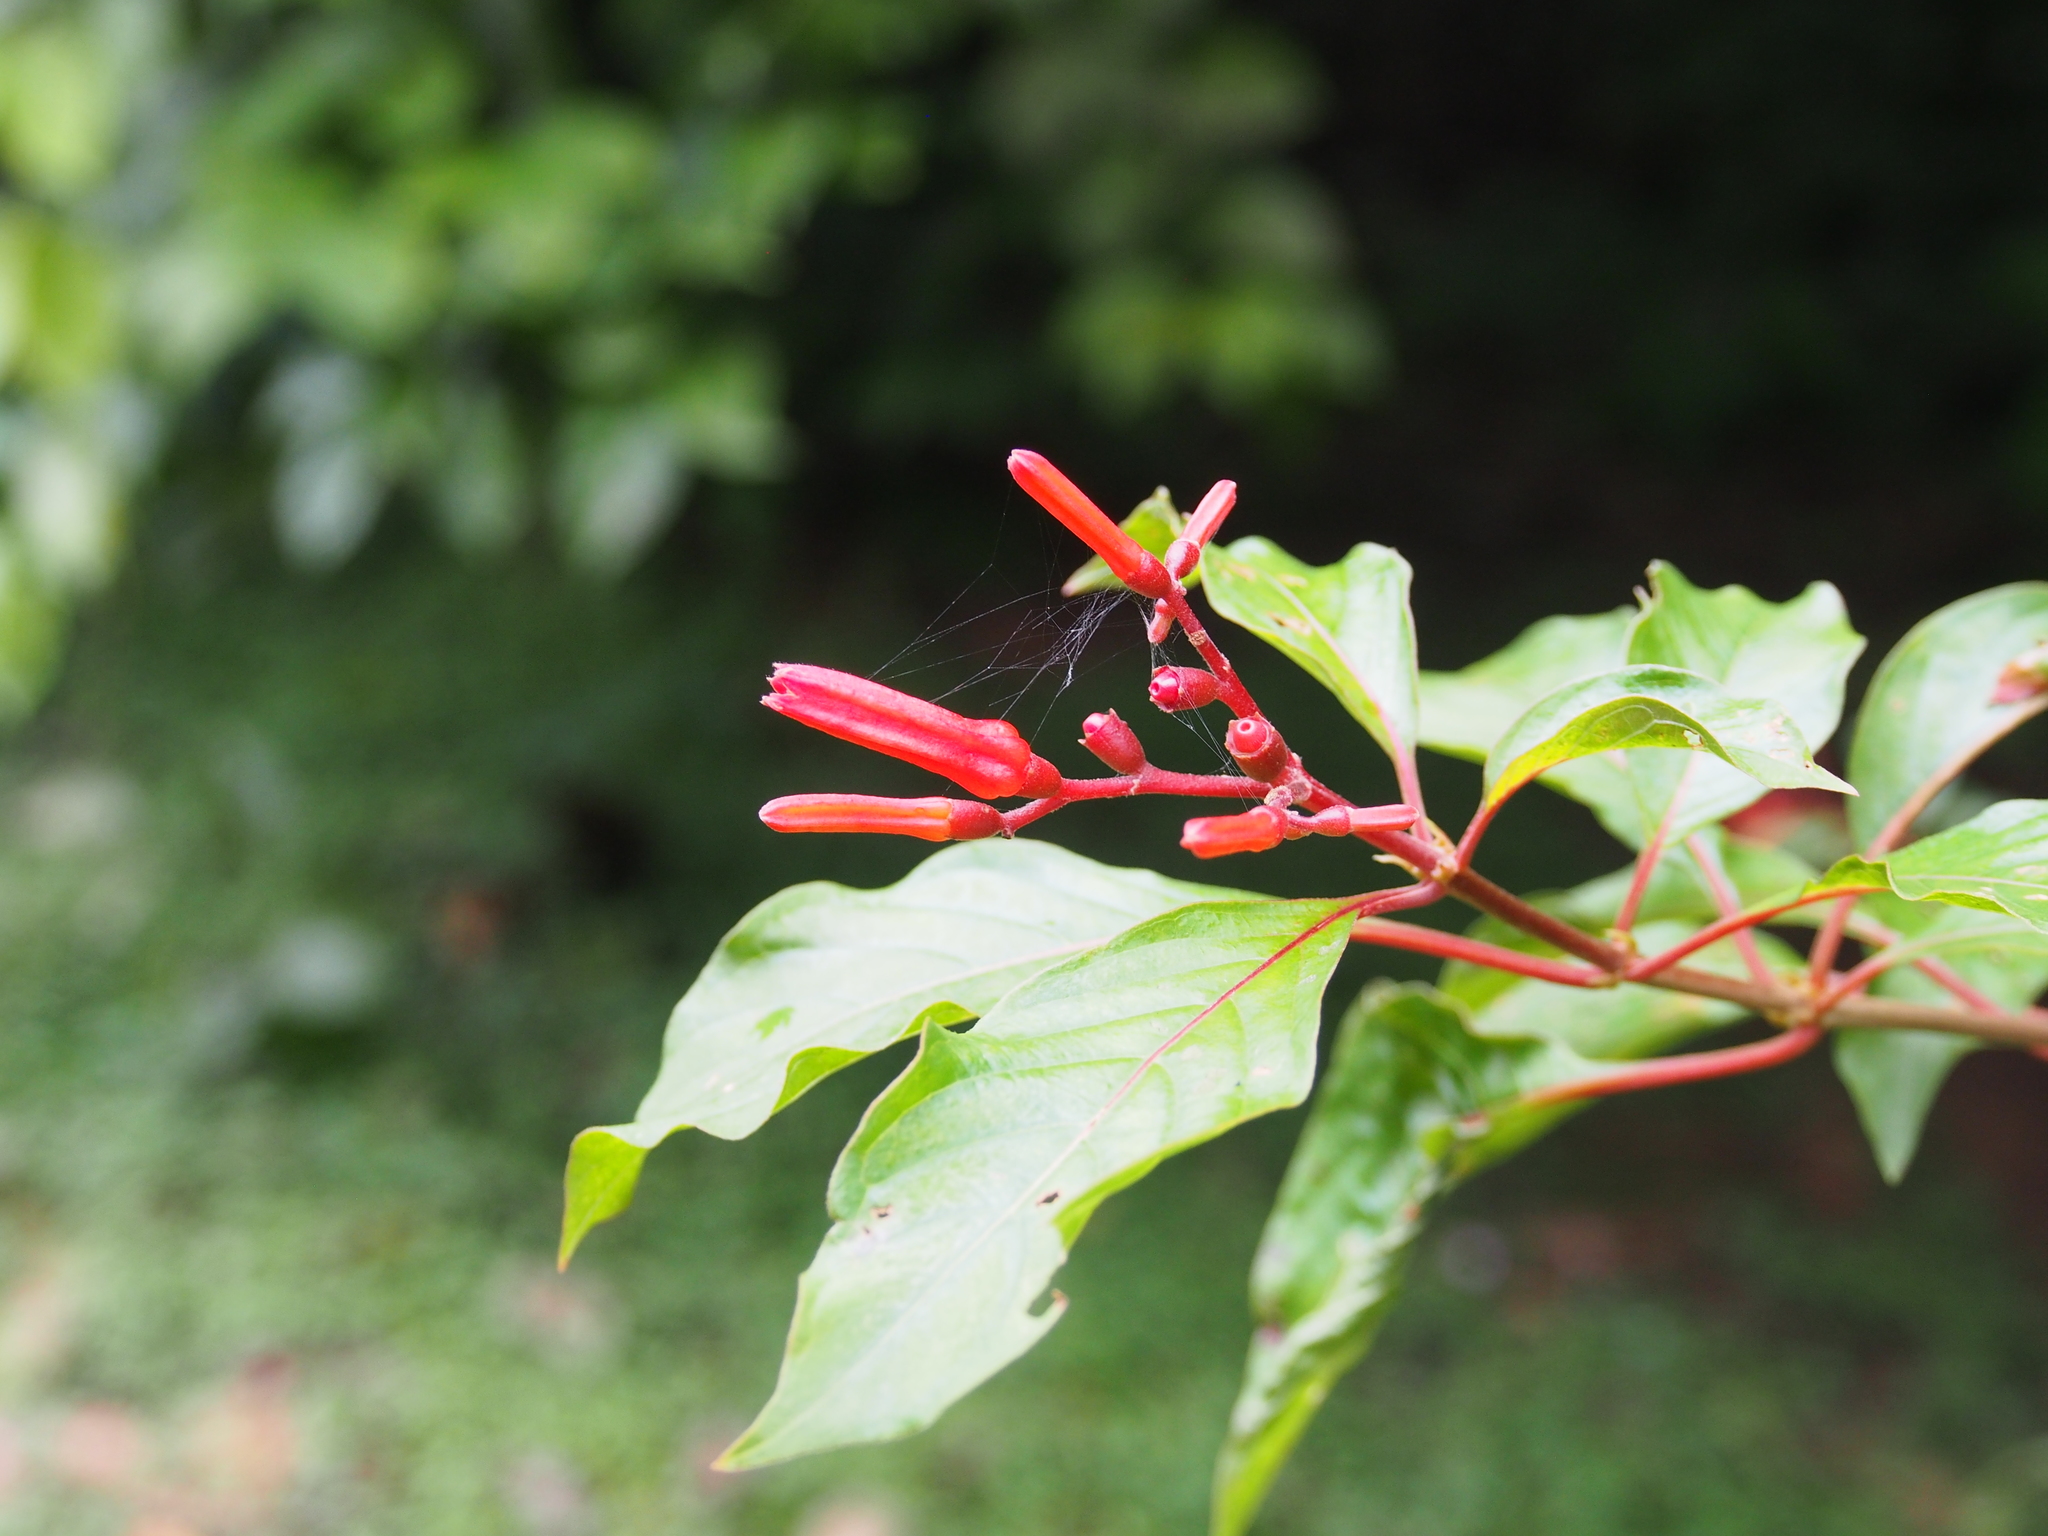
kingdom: Plantae
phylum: Tracheophyta
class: Magnoliopsida
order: Gentianales
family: Rubiaceae
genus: Hamelia
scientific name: Hamelia patens
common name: Redhead
